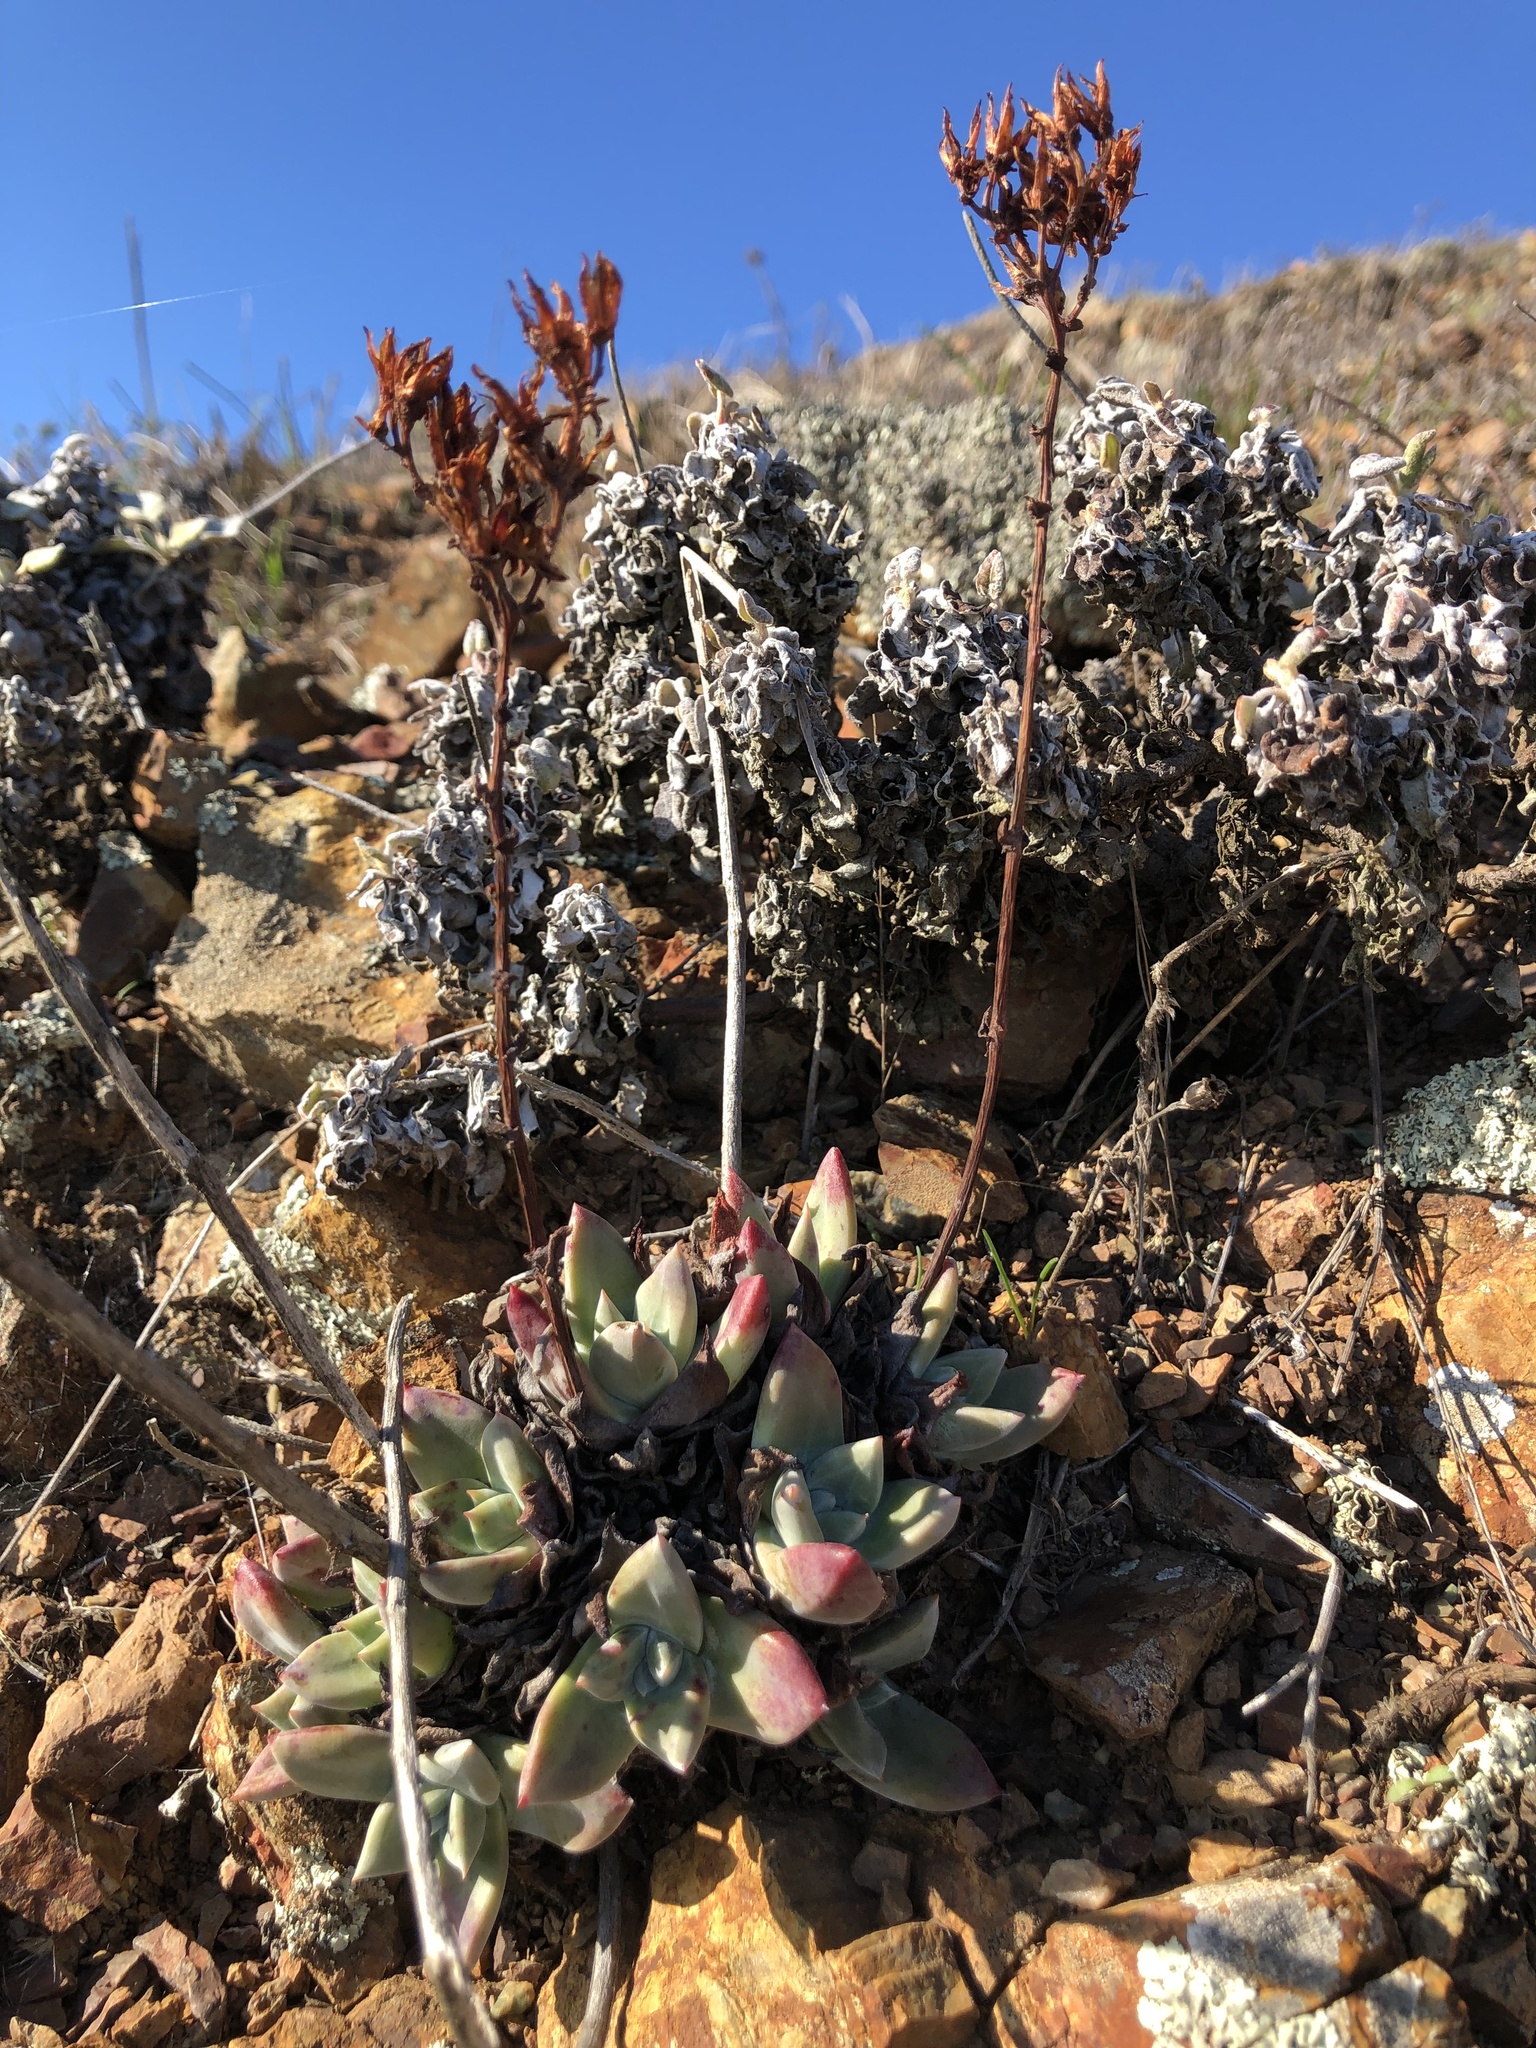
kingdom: Plantae
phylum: Tracheophyta
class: Magnoliopsida
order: Saxifragales
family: Crassulaceae
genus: Dudleya
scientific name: Dudleya farinosa
